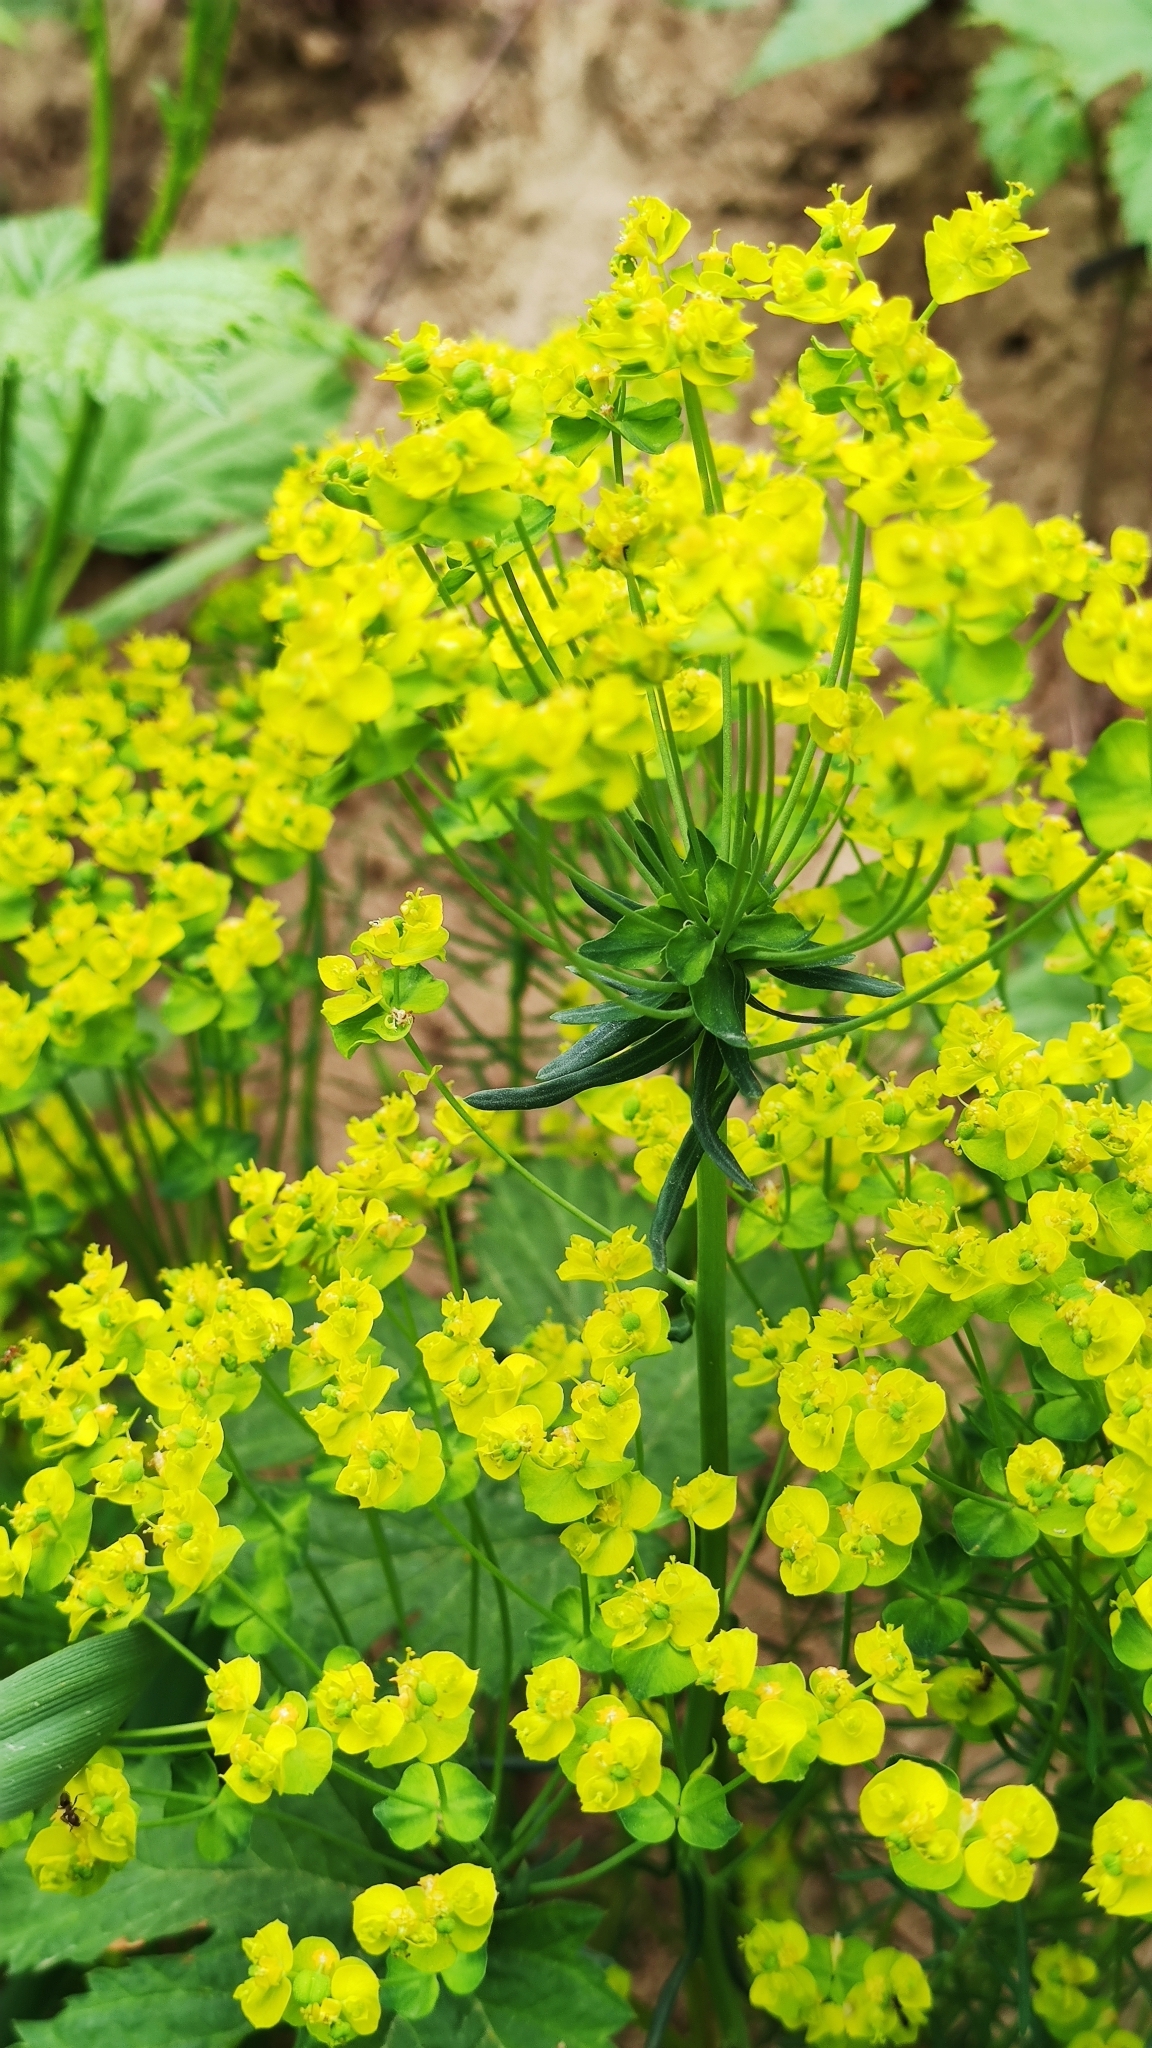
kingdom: Plantae
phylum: Tracheophyta
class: Magnoliopsida
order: Malpighiales
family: Euphorbiaceae
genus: Euphorbia
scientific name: Euphorbia cyparissias
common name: Cypress spurge
